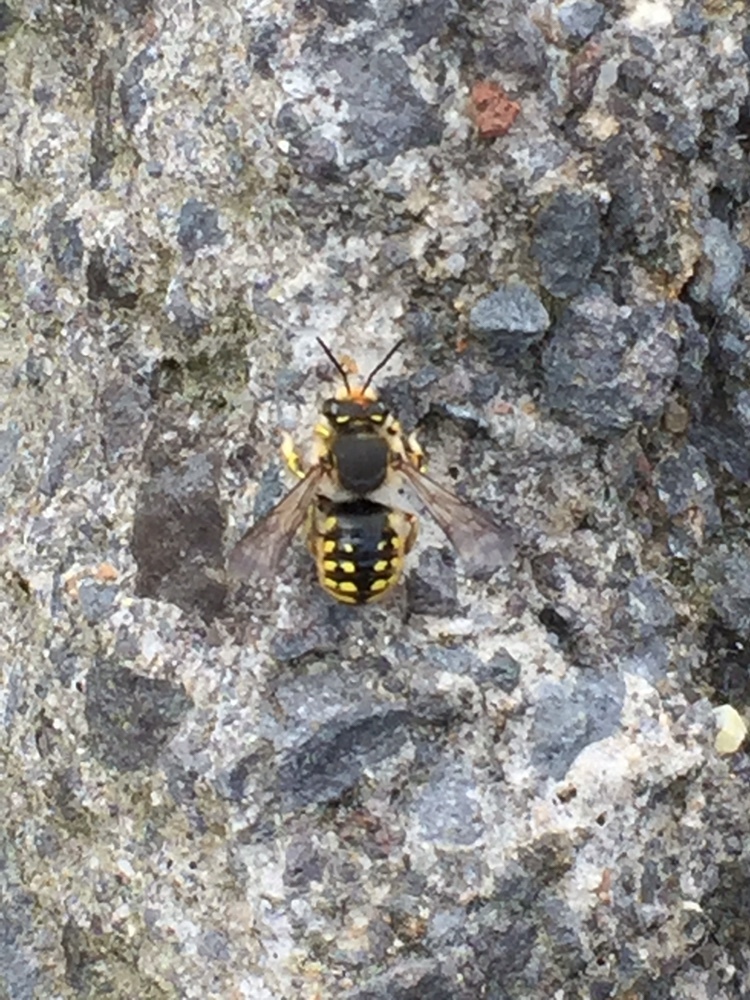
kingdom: Animalia
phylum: Arthropoda
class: Insecta
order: Hymenoptera
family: Megachilidae
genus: Anthidium
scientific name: Anthidium manicatum
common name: Wool carder bee
